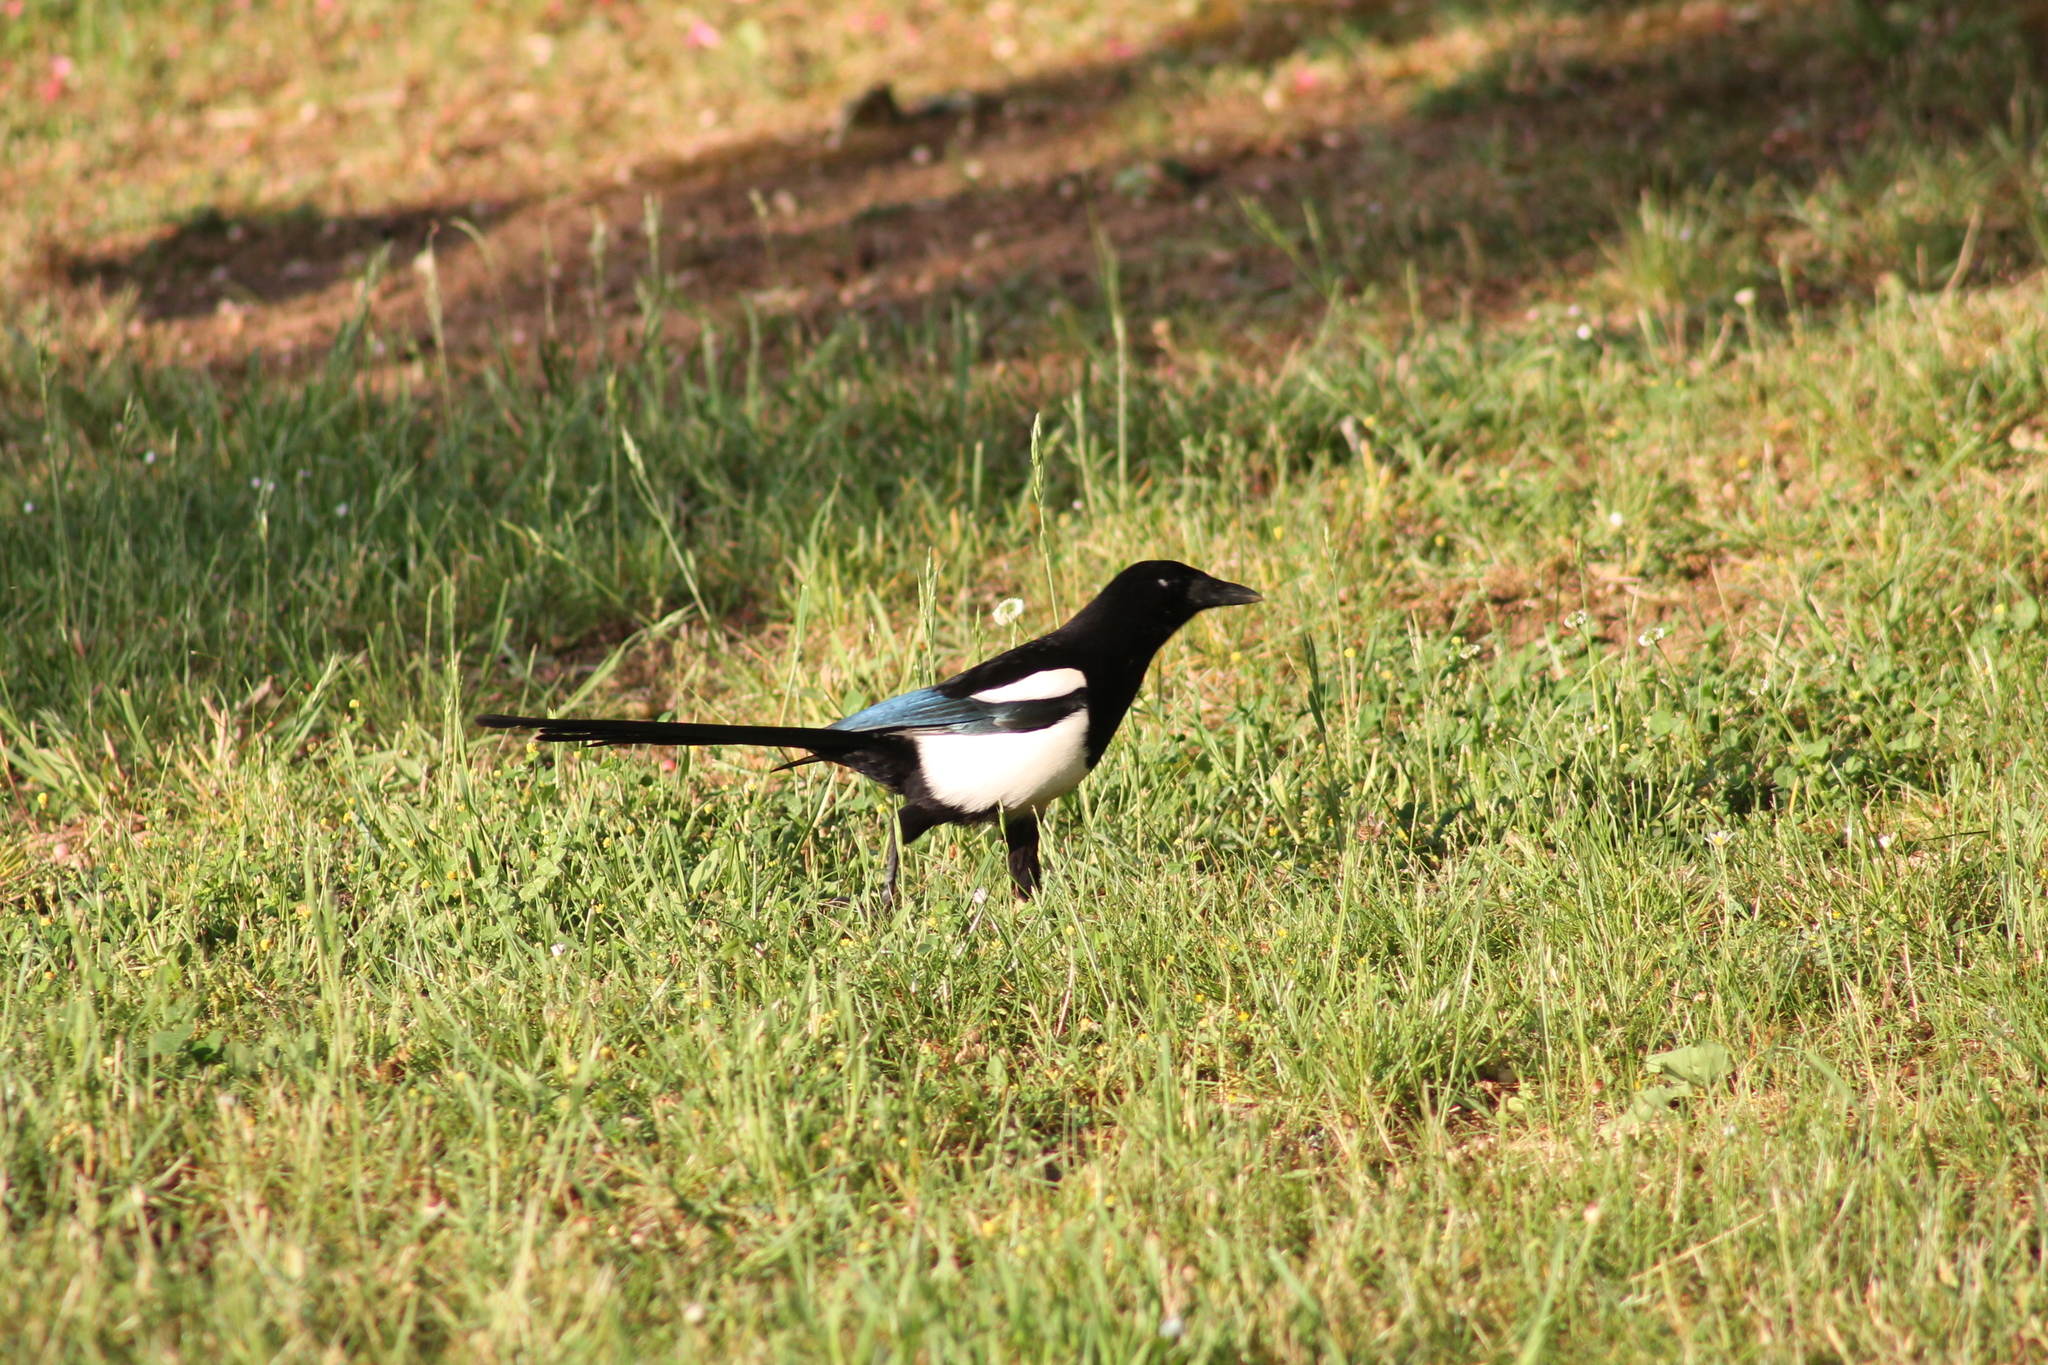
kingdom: Animalia
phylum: Chordata
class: Aves
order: Passeriformes
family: Corvidae
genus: Pica
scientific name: Pica pica
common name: Eurasian magpie
